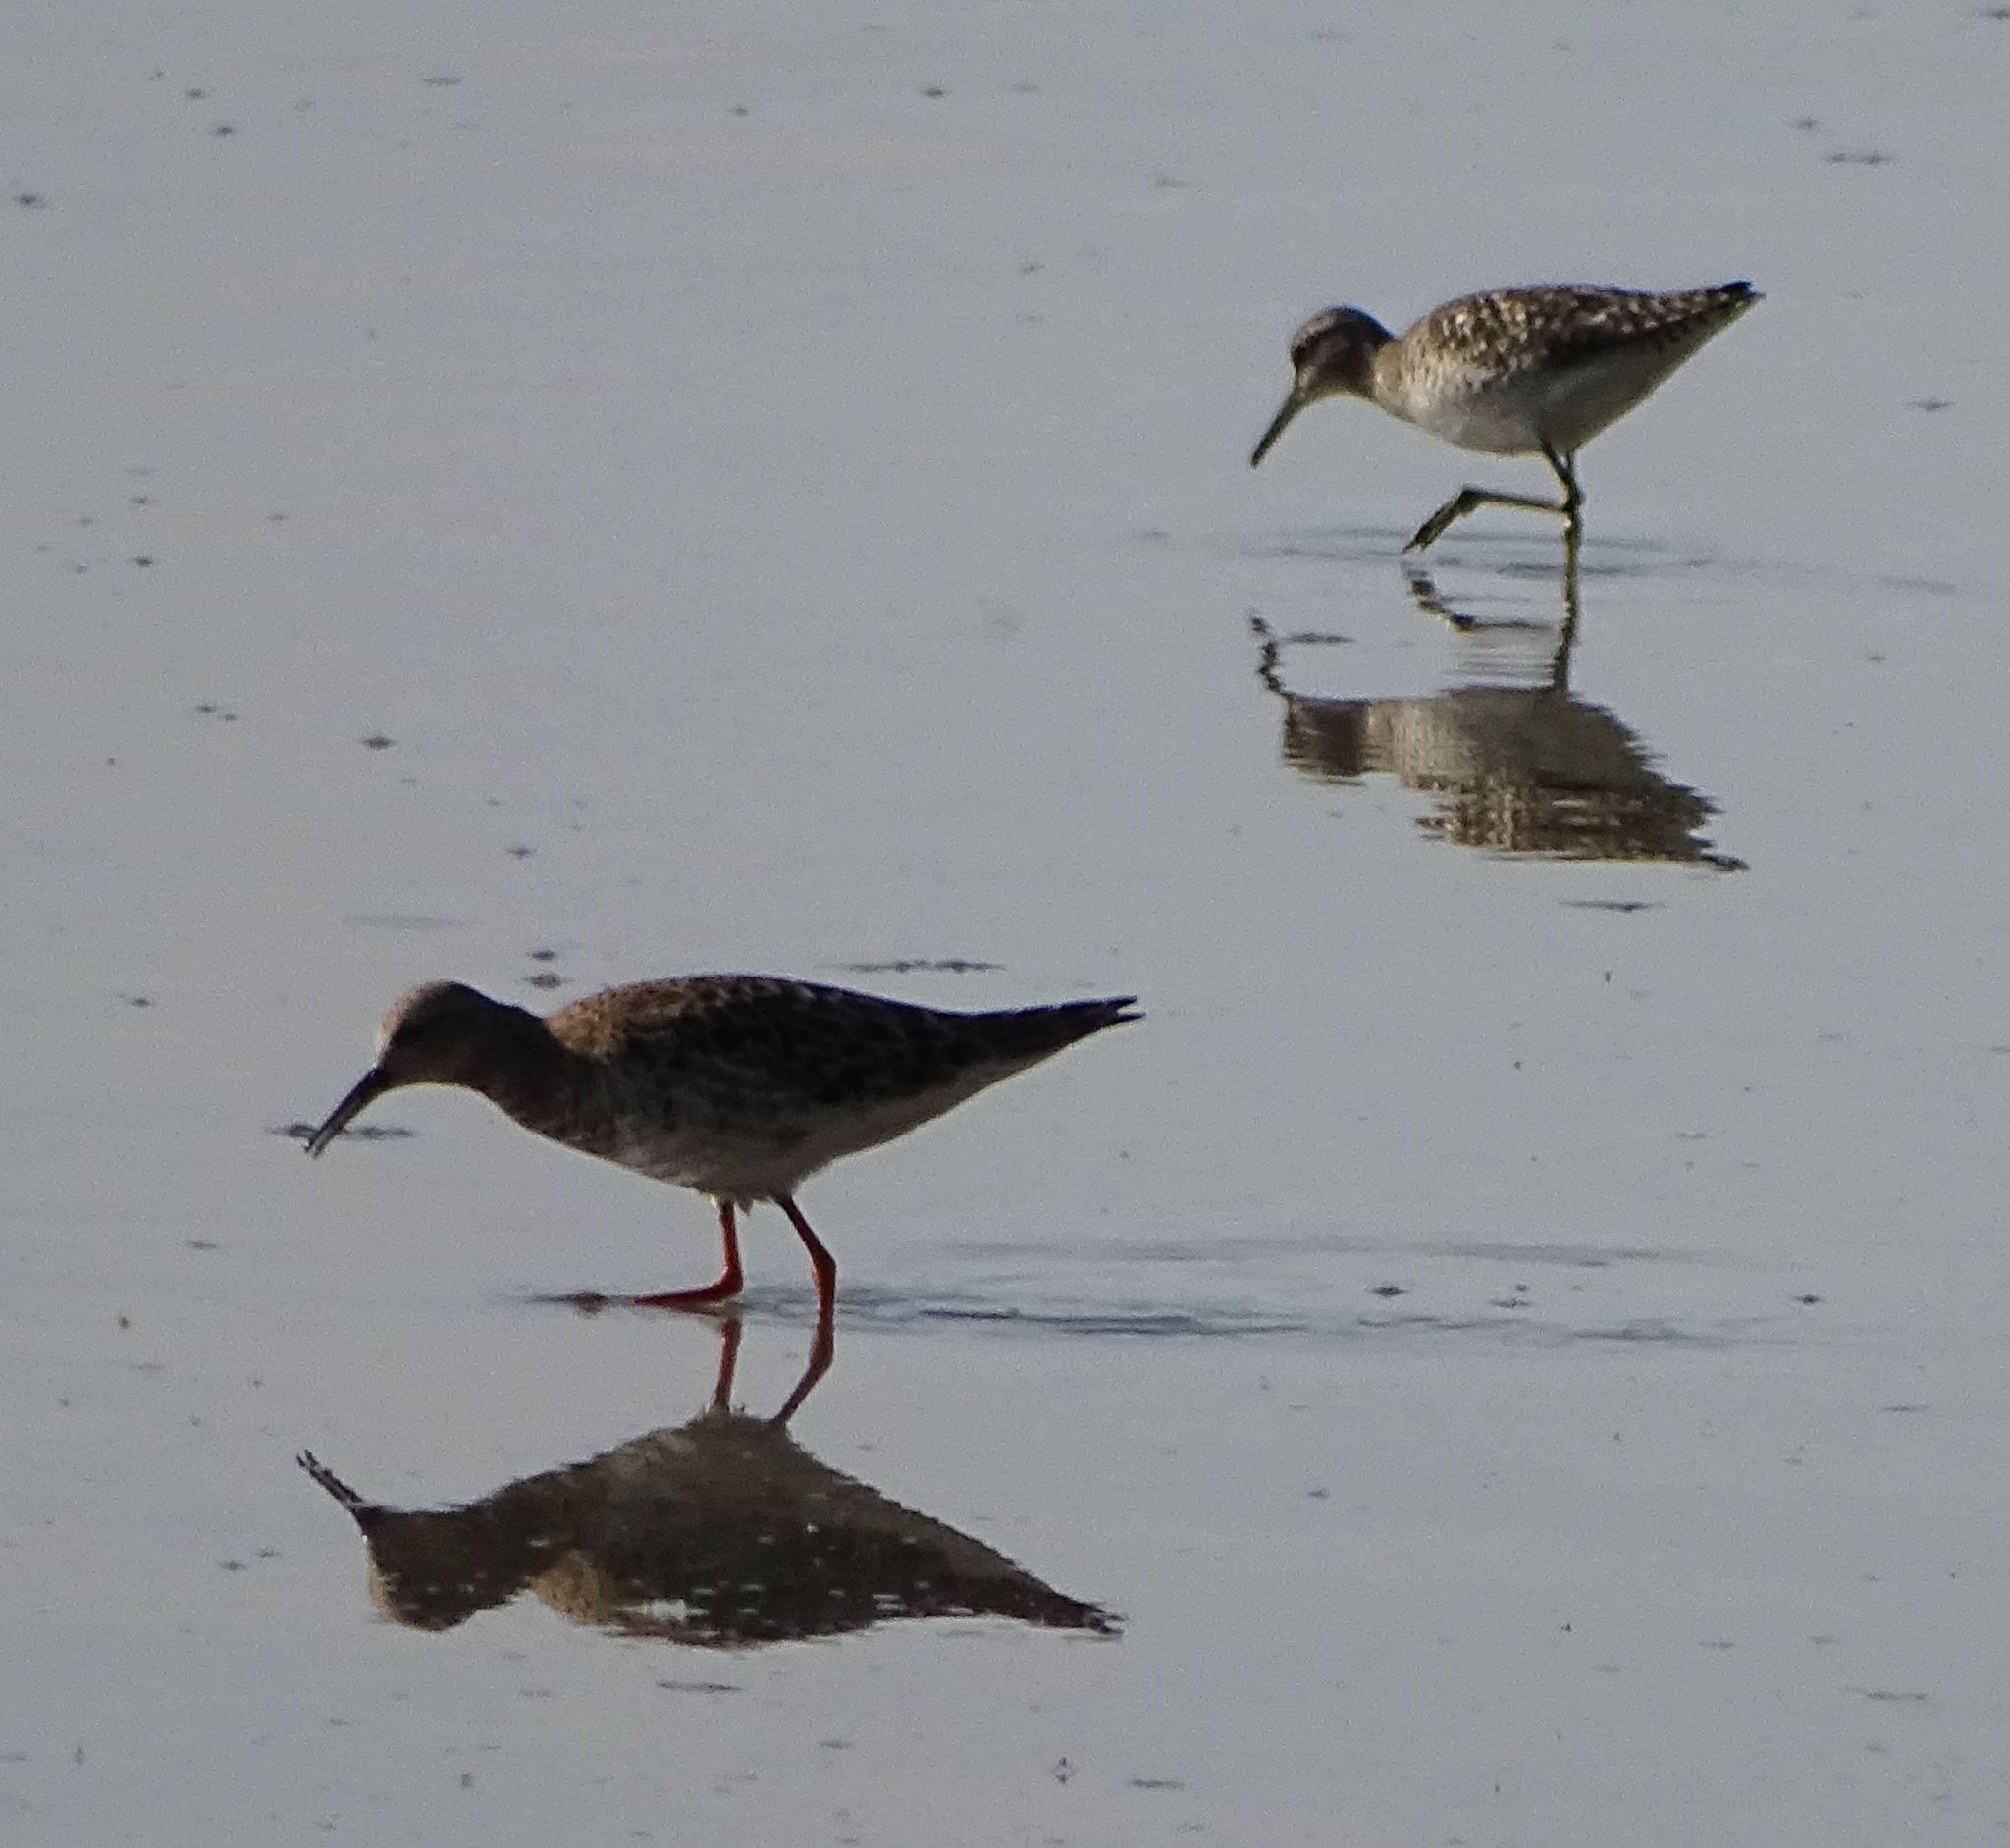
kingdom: Animalia
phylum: Chordata
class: Aves
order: Charadriiformes
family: Scolopacidae
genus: Calidris
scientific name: Calidris pugnax
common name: Ruff
